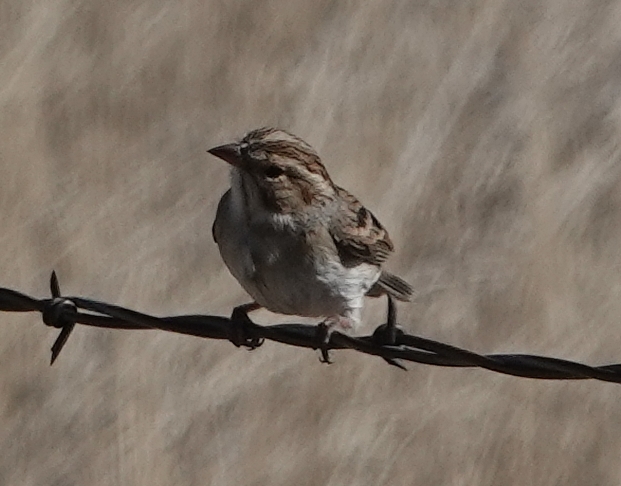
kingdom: Animalia
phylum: Chordata
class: Aves
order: Passeriformes
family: Passerellidae
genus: Spizella
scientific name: Spizella breweri
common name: Brewer's sparrow
